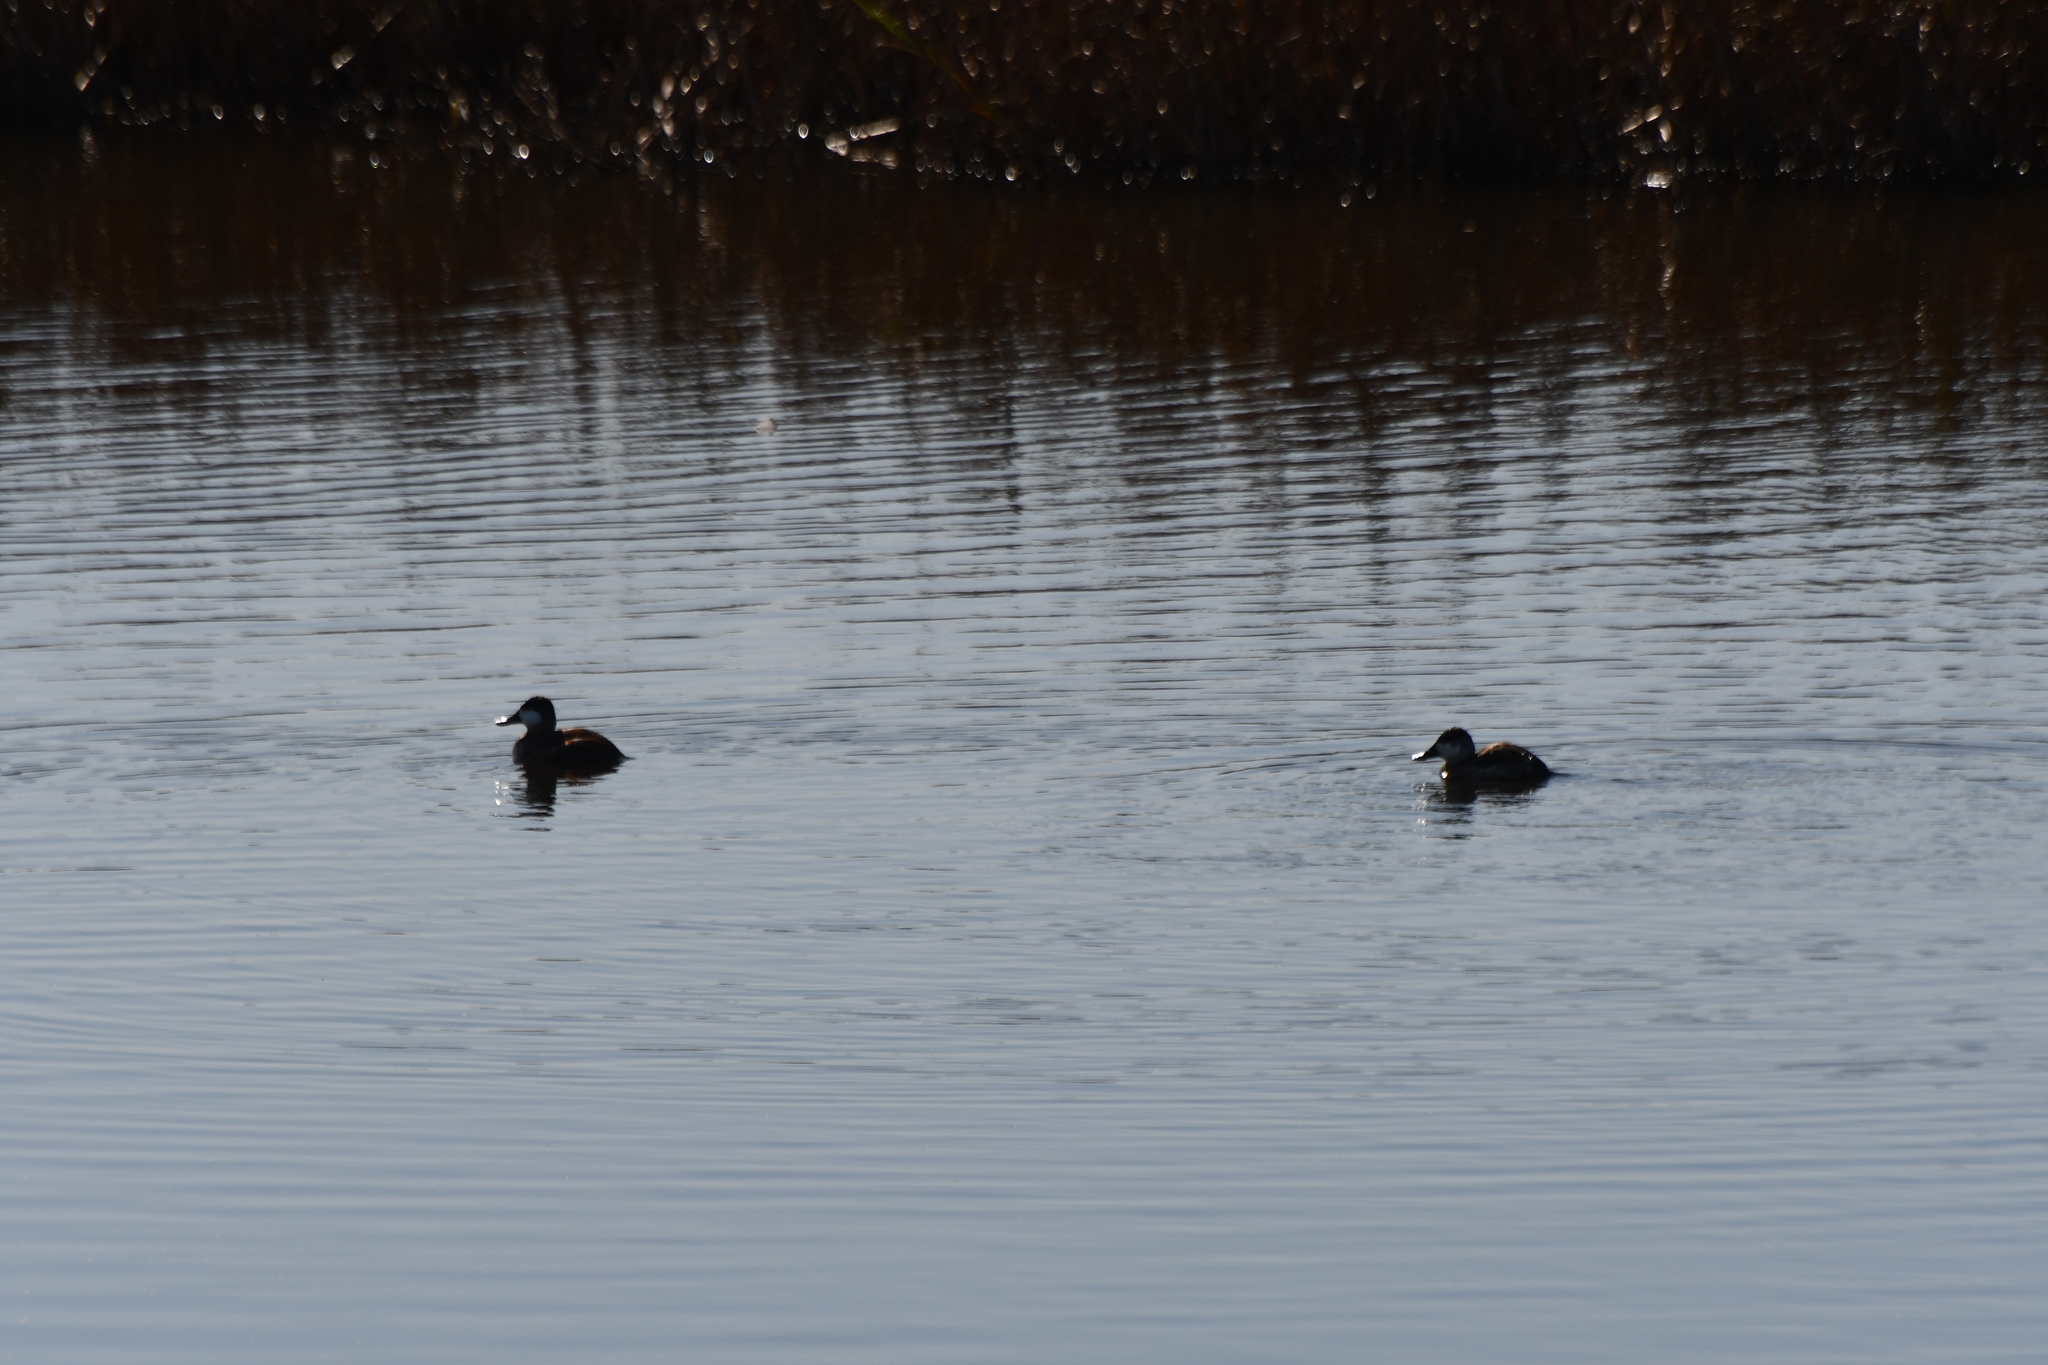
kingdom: Animalia
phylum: Chordata
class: Aves
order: Anseriformes
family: Anatidae
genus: Oxyura
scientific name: Oxyura jamaicensis
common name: Ruddy duck
